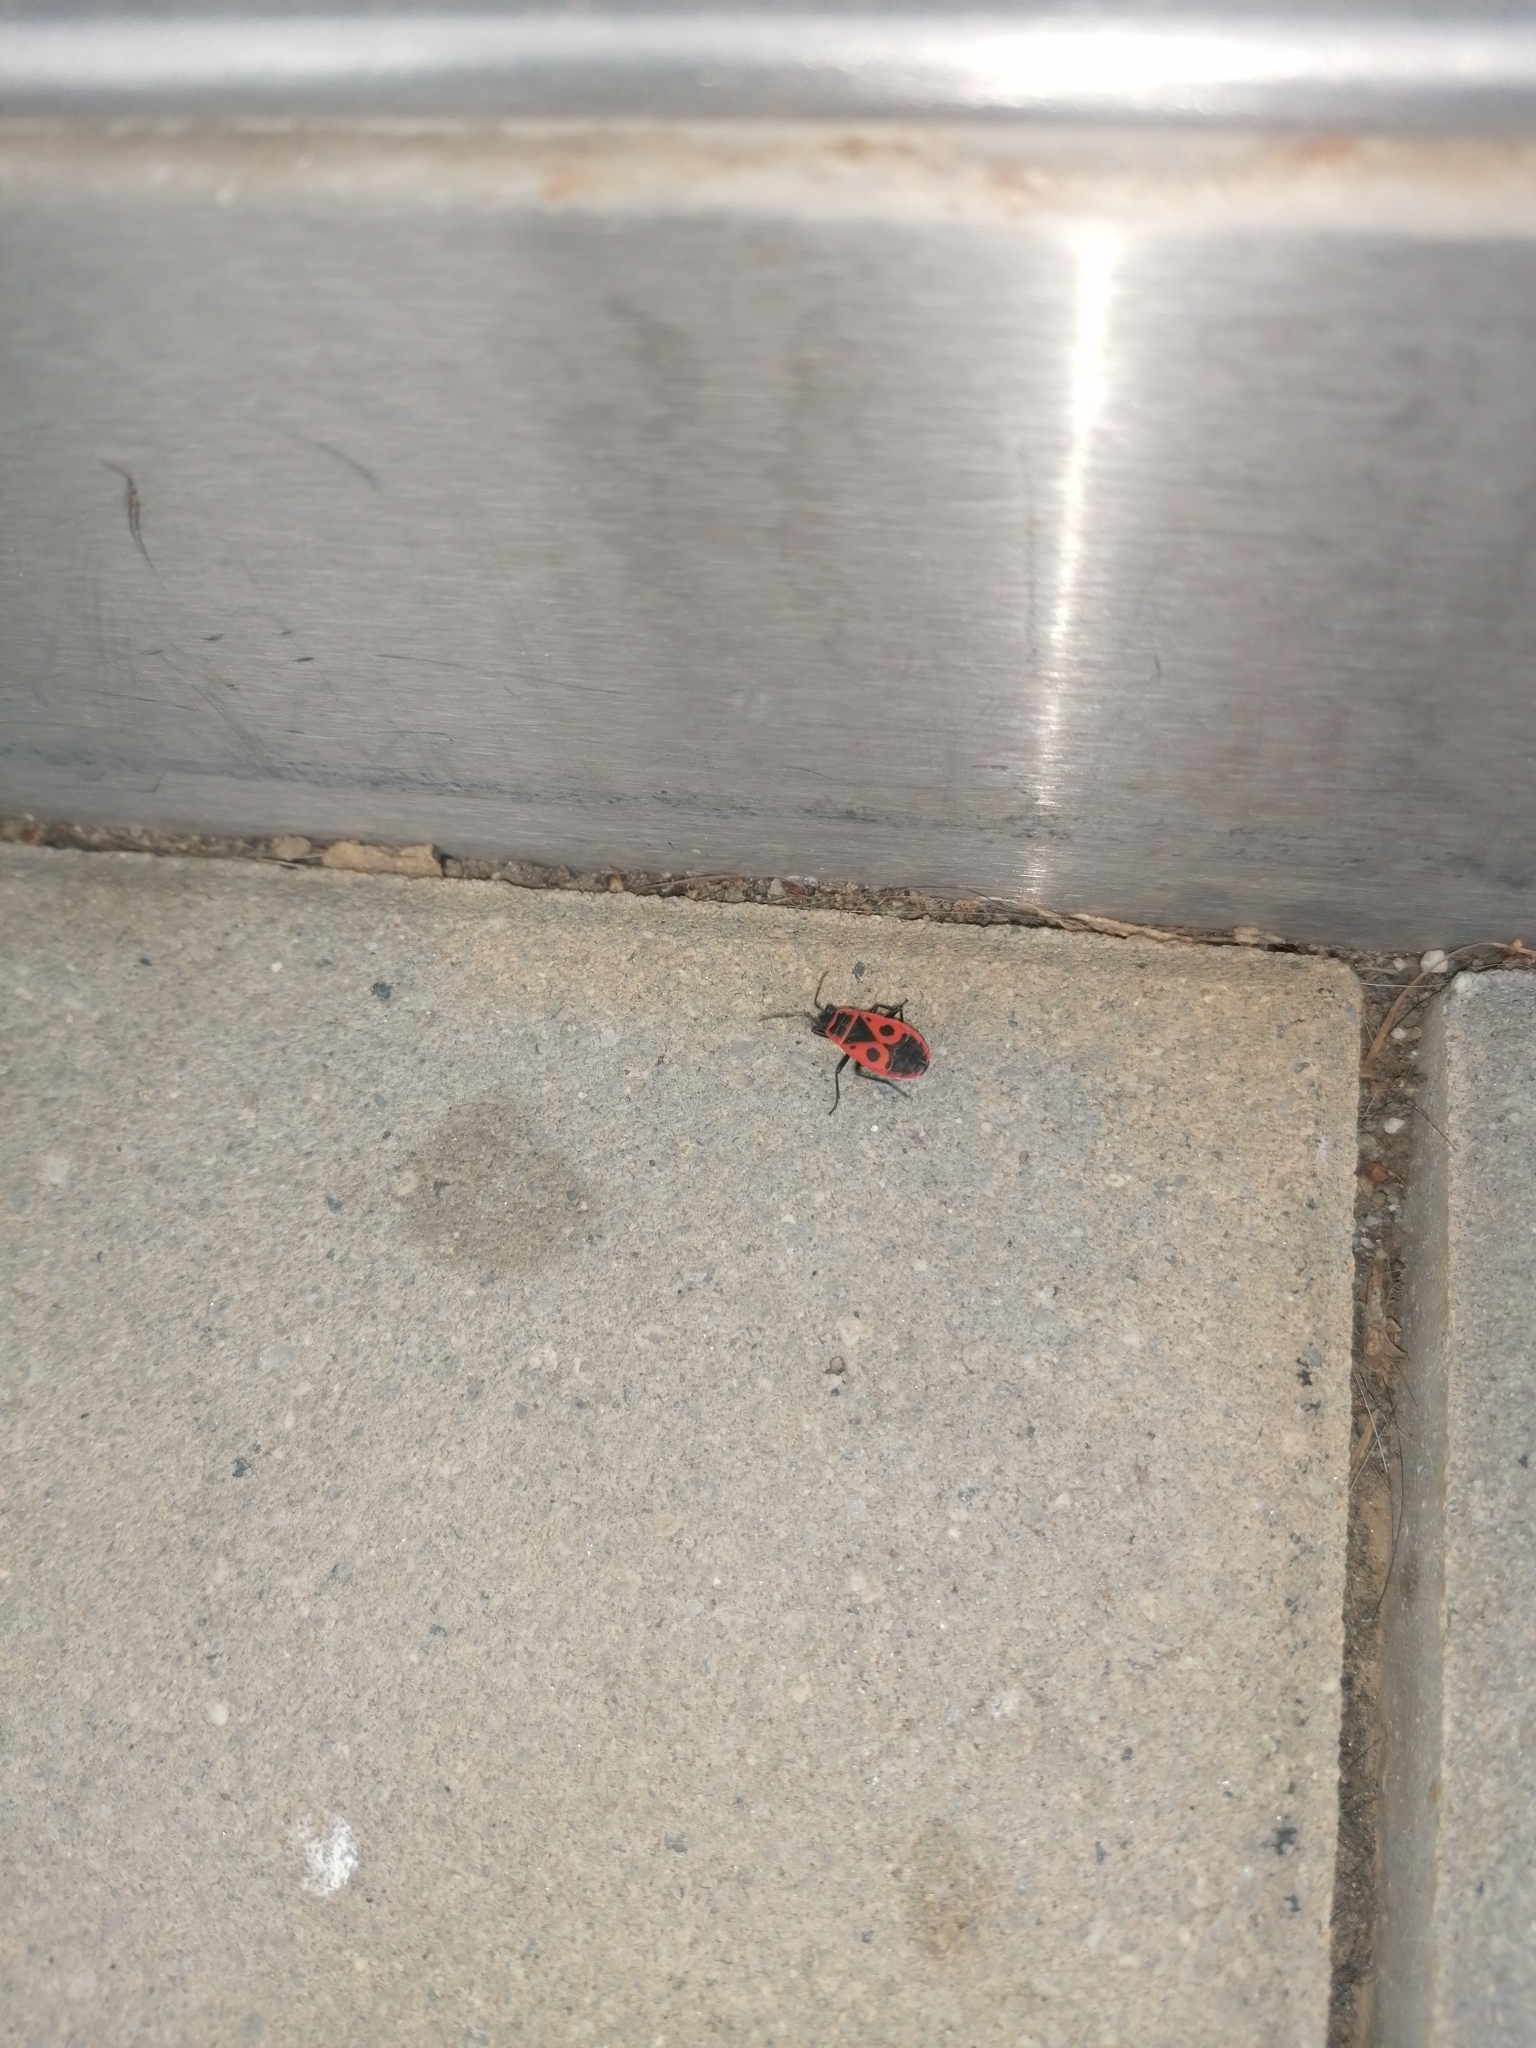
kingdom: Animalia
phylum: Arthropoda
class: Insecta
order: Hemiptera
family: Pyrrhocoridae
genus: Pyrrhocoris
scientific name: Pyrrhocoris apterus
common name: Firebug
